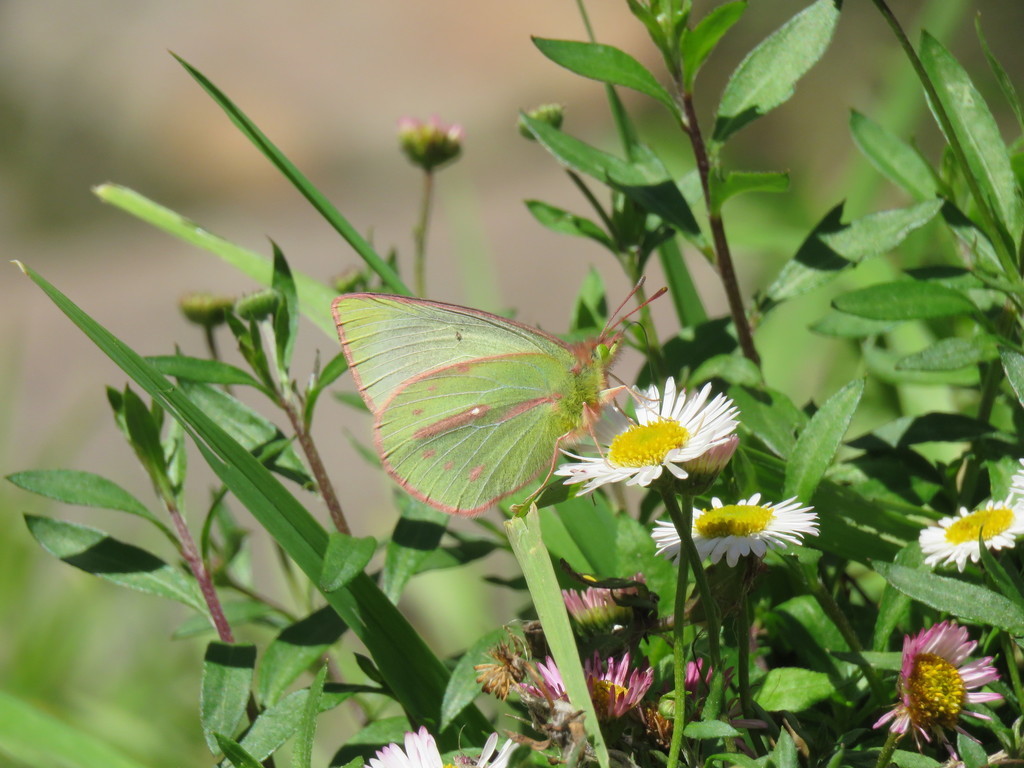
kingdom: Plantae
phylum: Tracheophyta
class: Magnoliopsida
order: Asterales
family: Asteraceae
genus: Erigeron
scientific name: Erigeron karvinskianus
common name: Mexican fleabane
